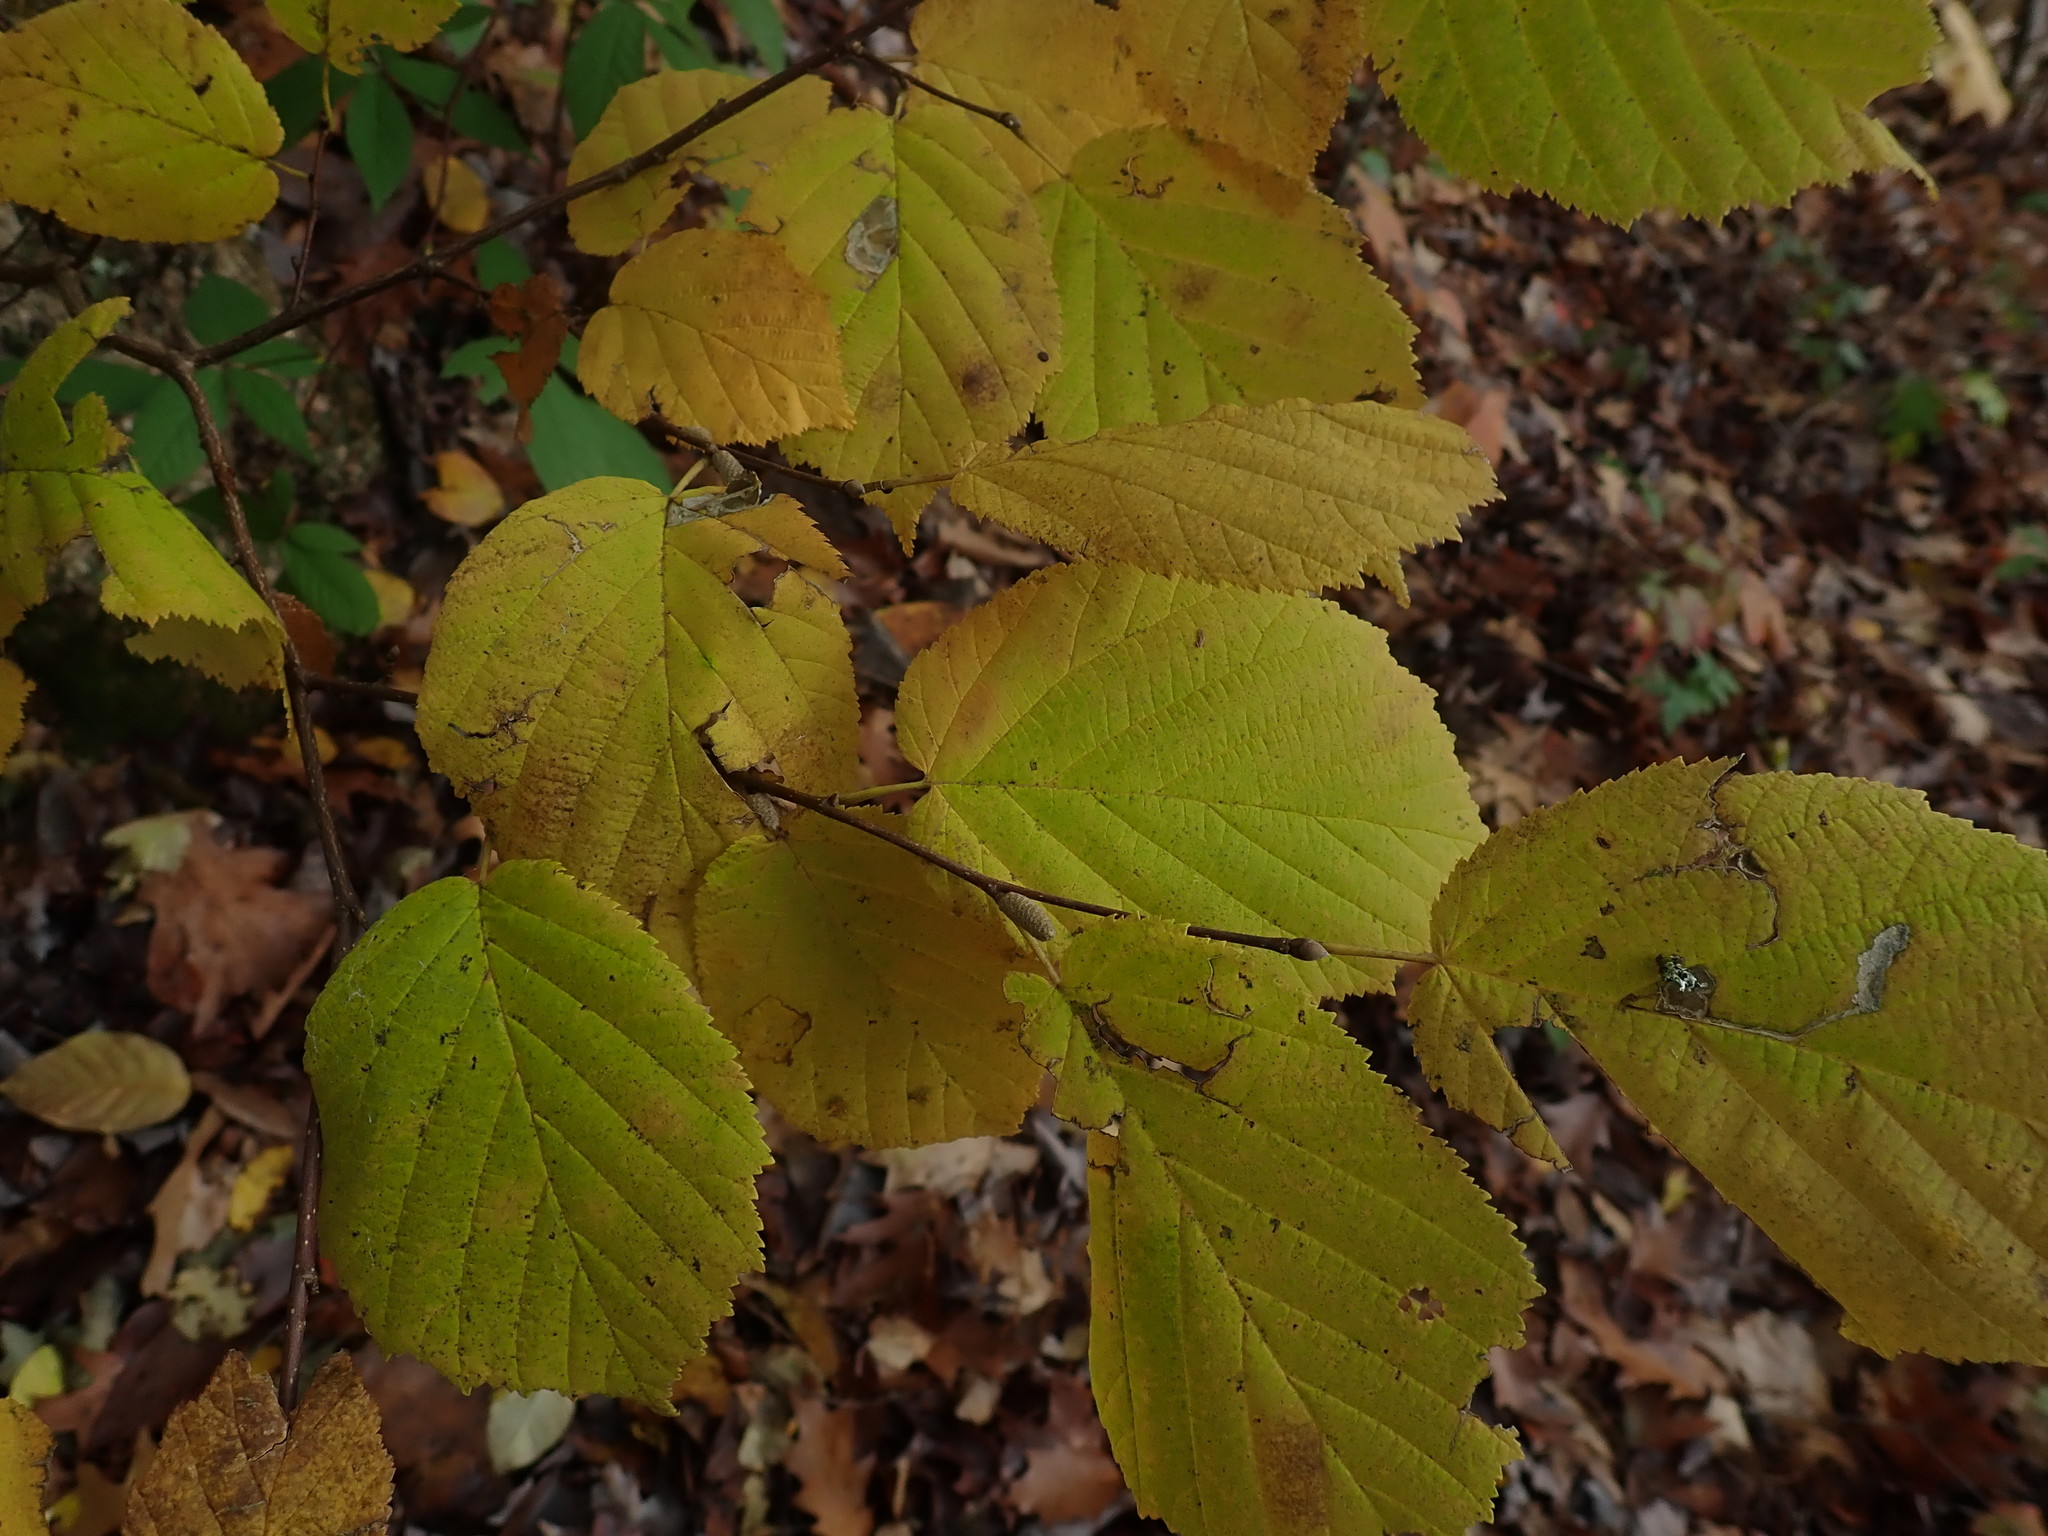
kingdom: Plantae
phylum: Tracheophyta
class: Magnoliopsida
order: Fagales
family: Betulaceae
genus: Corylus
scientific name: Corylus cornuta
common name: Beaked hazel
